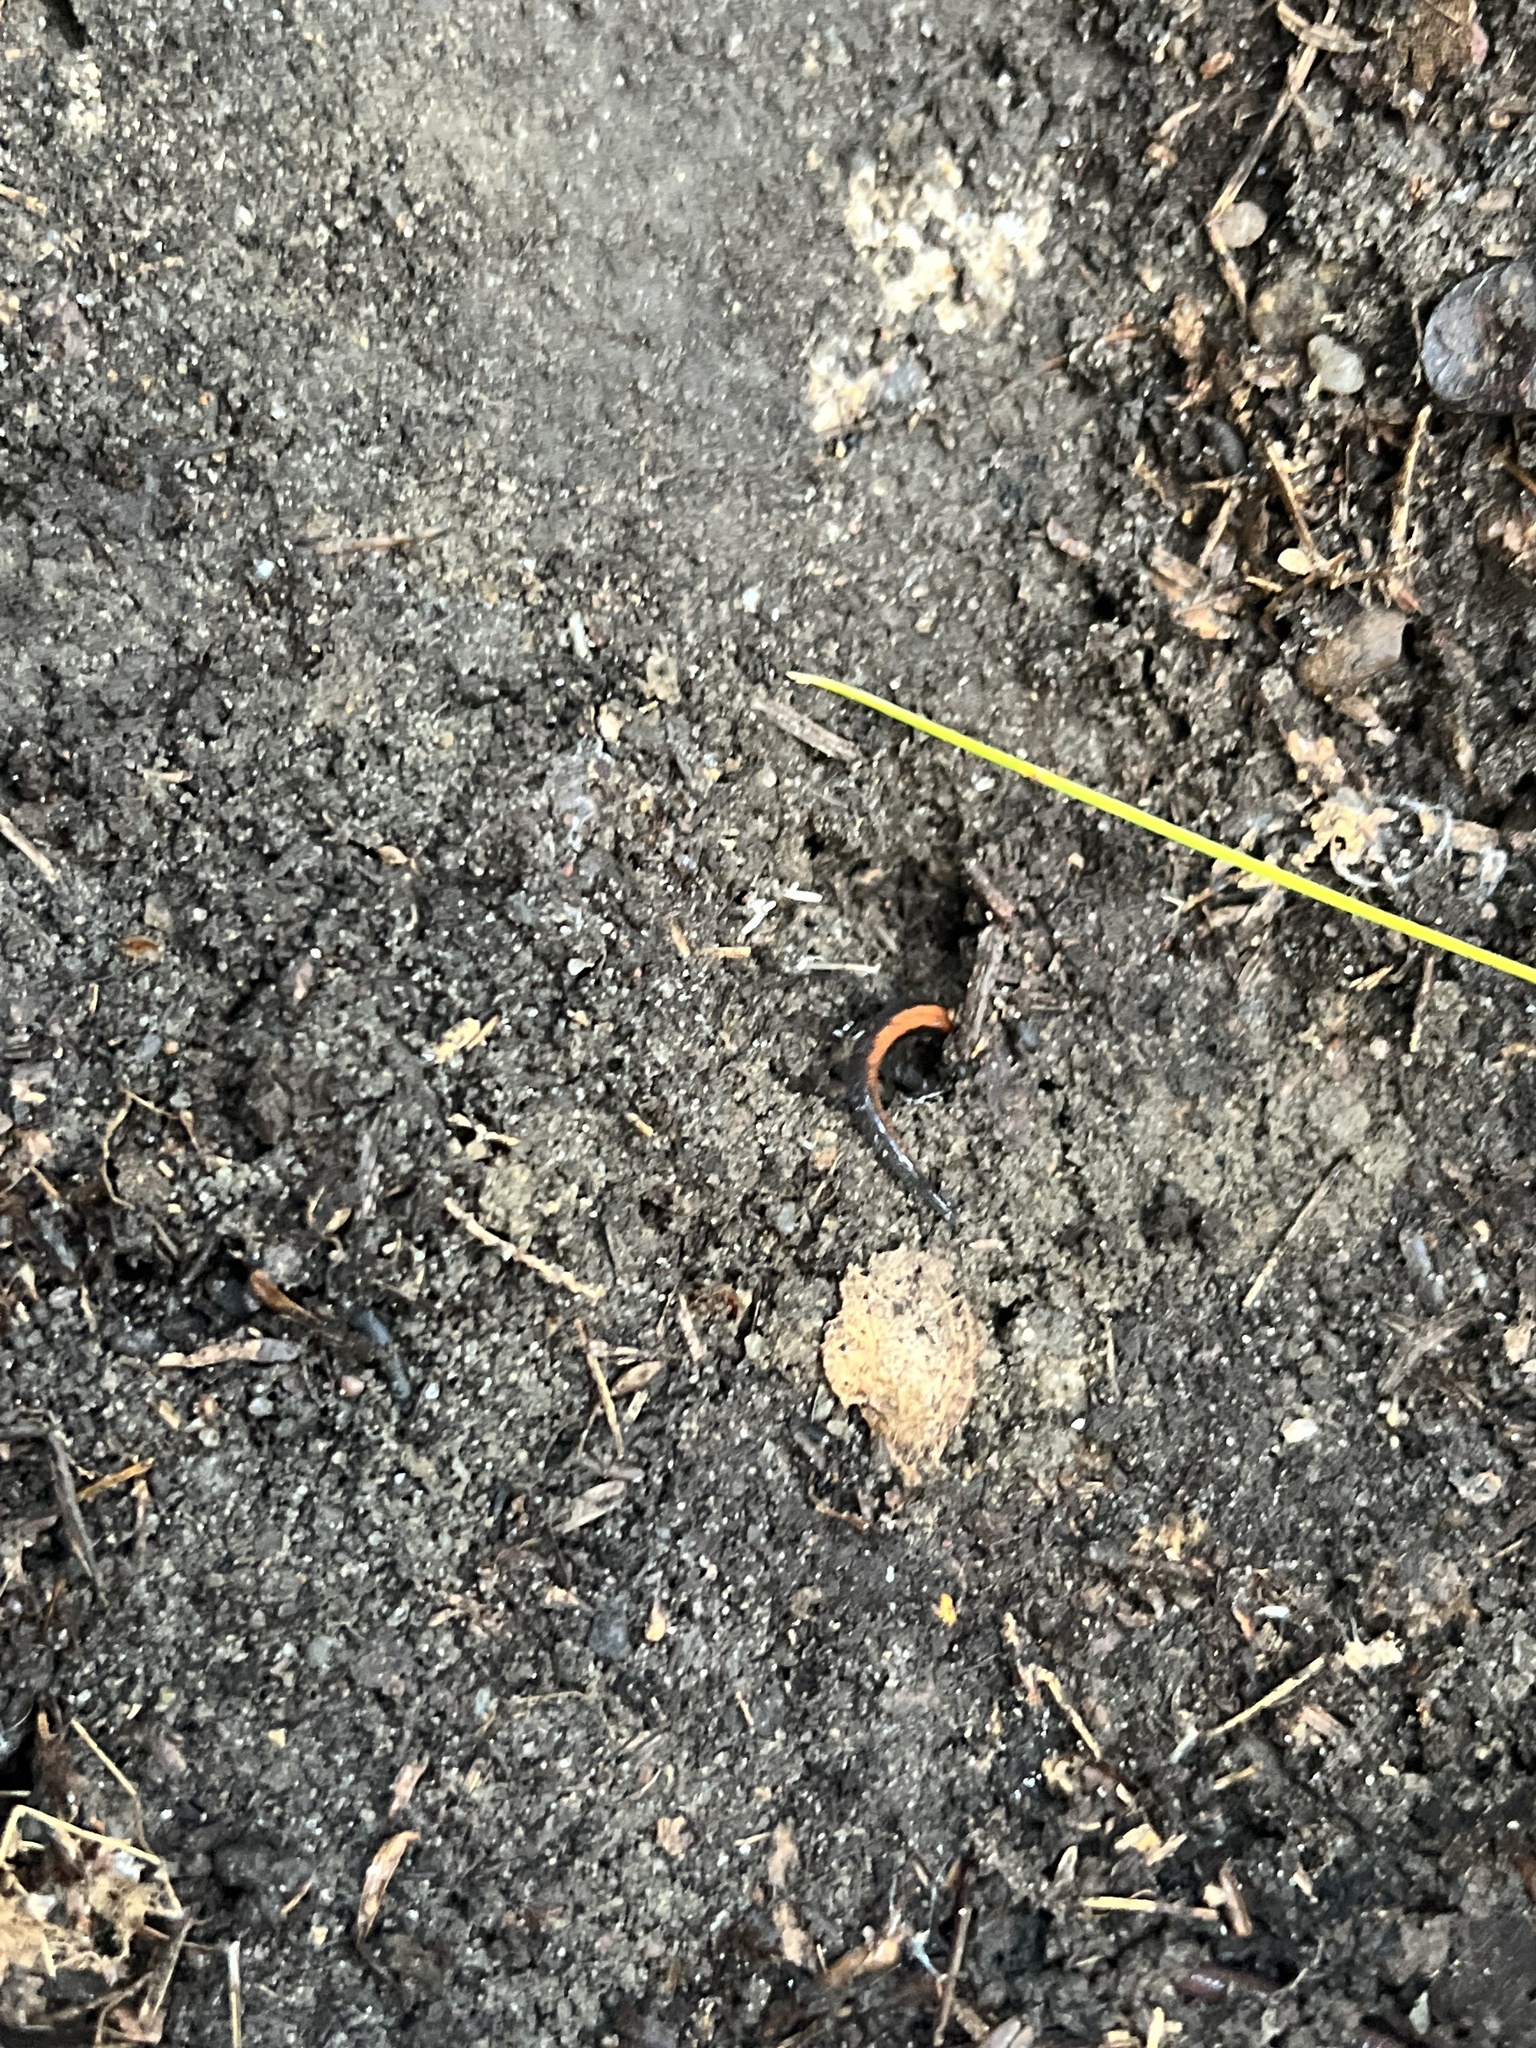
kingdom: Animalia
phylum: Chordata
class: Amphibia
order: Caudata
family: Plethodontidae
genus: Plethodon
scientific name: Plethodon cinereus
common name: Redback salamander
